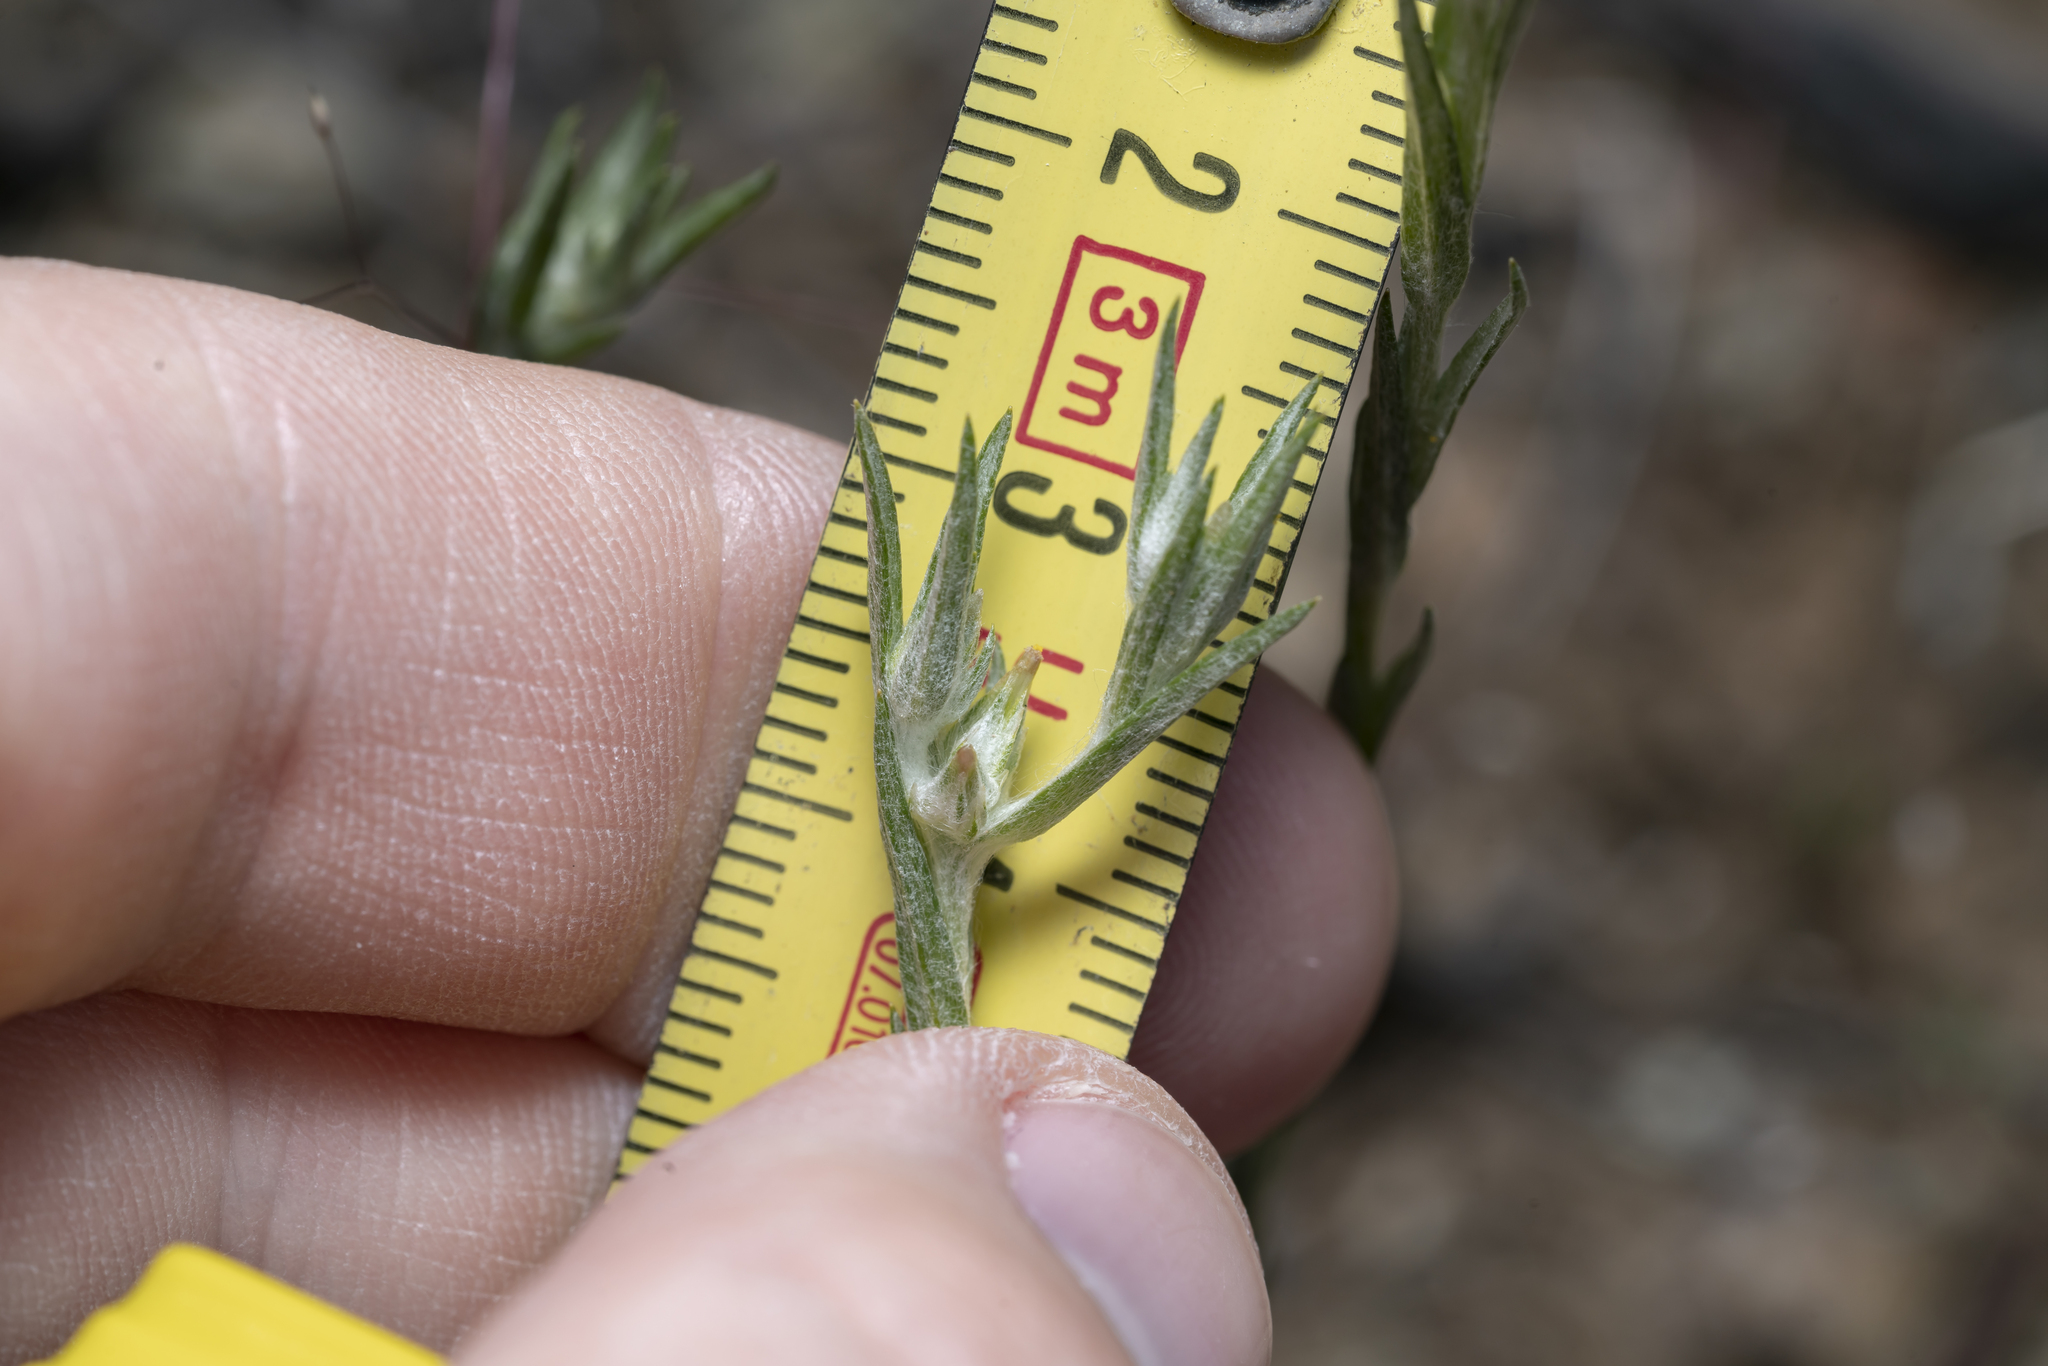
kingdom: Plantae
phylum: Tracheophyta
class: Magnoliopsida
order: Asterales
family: Asteraceae
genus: Logfia
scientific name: Logfia gallica
